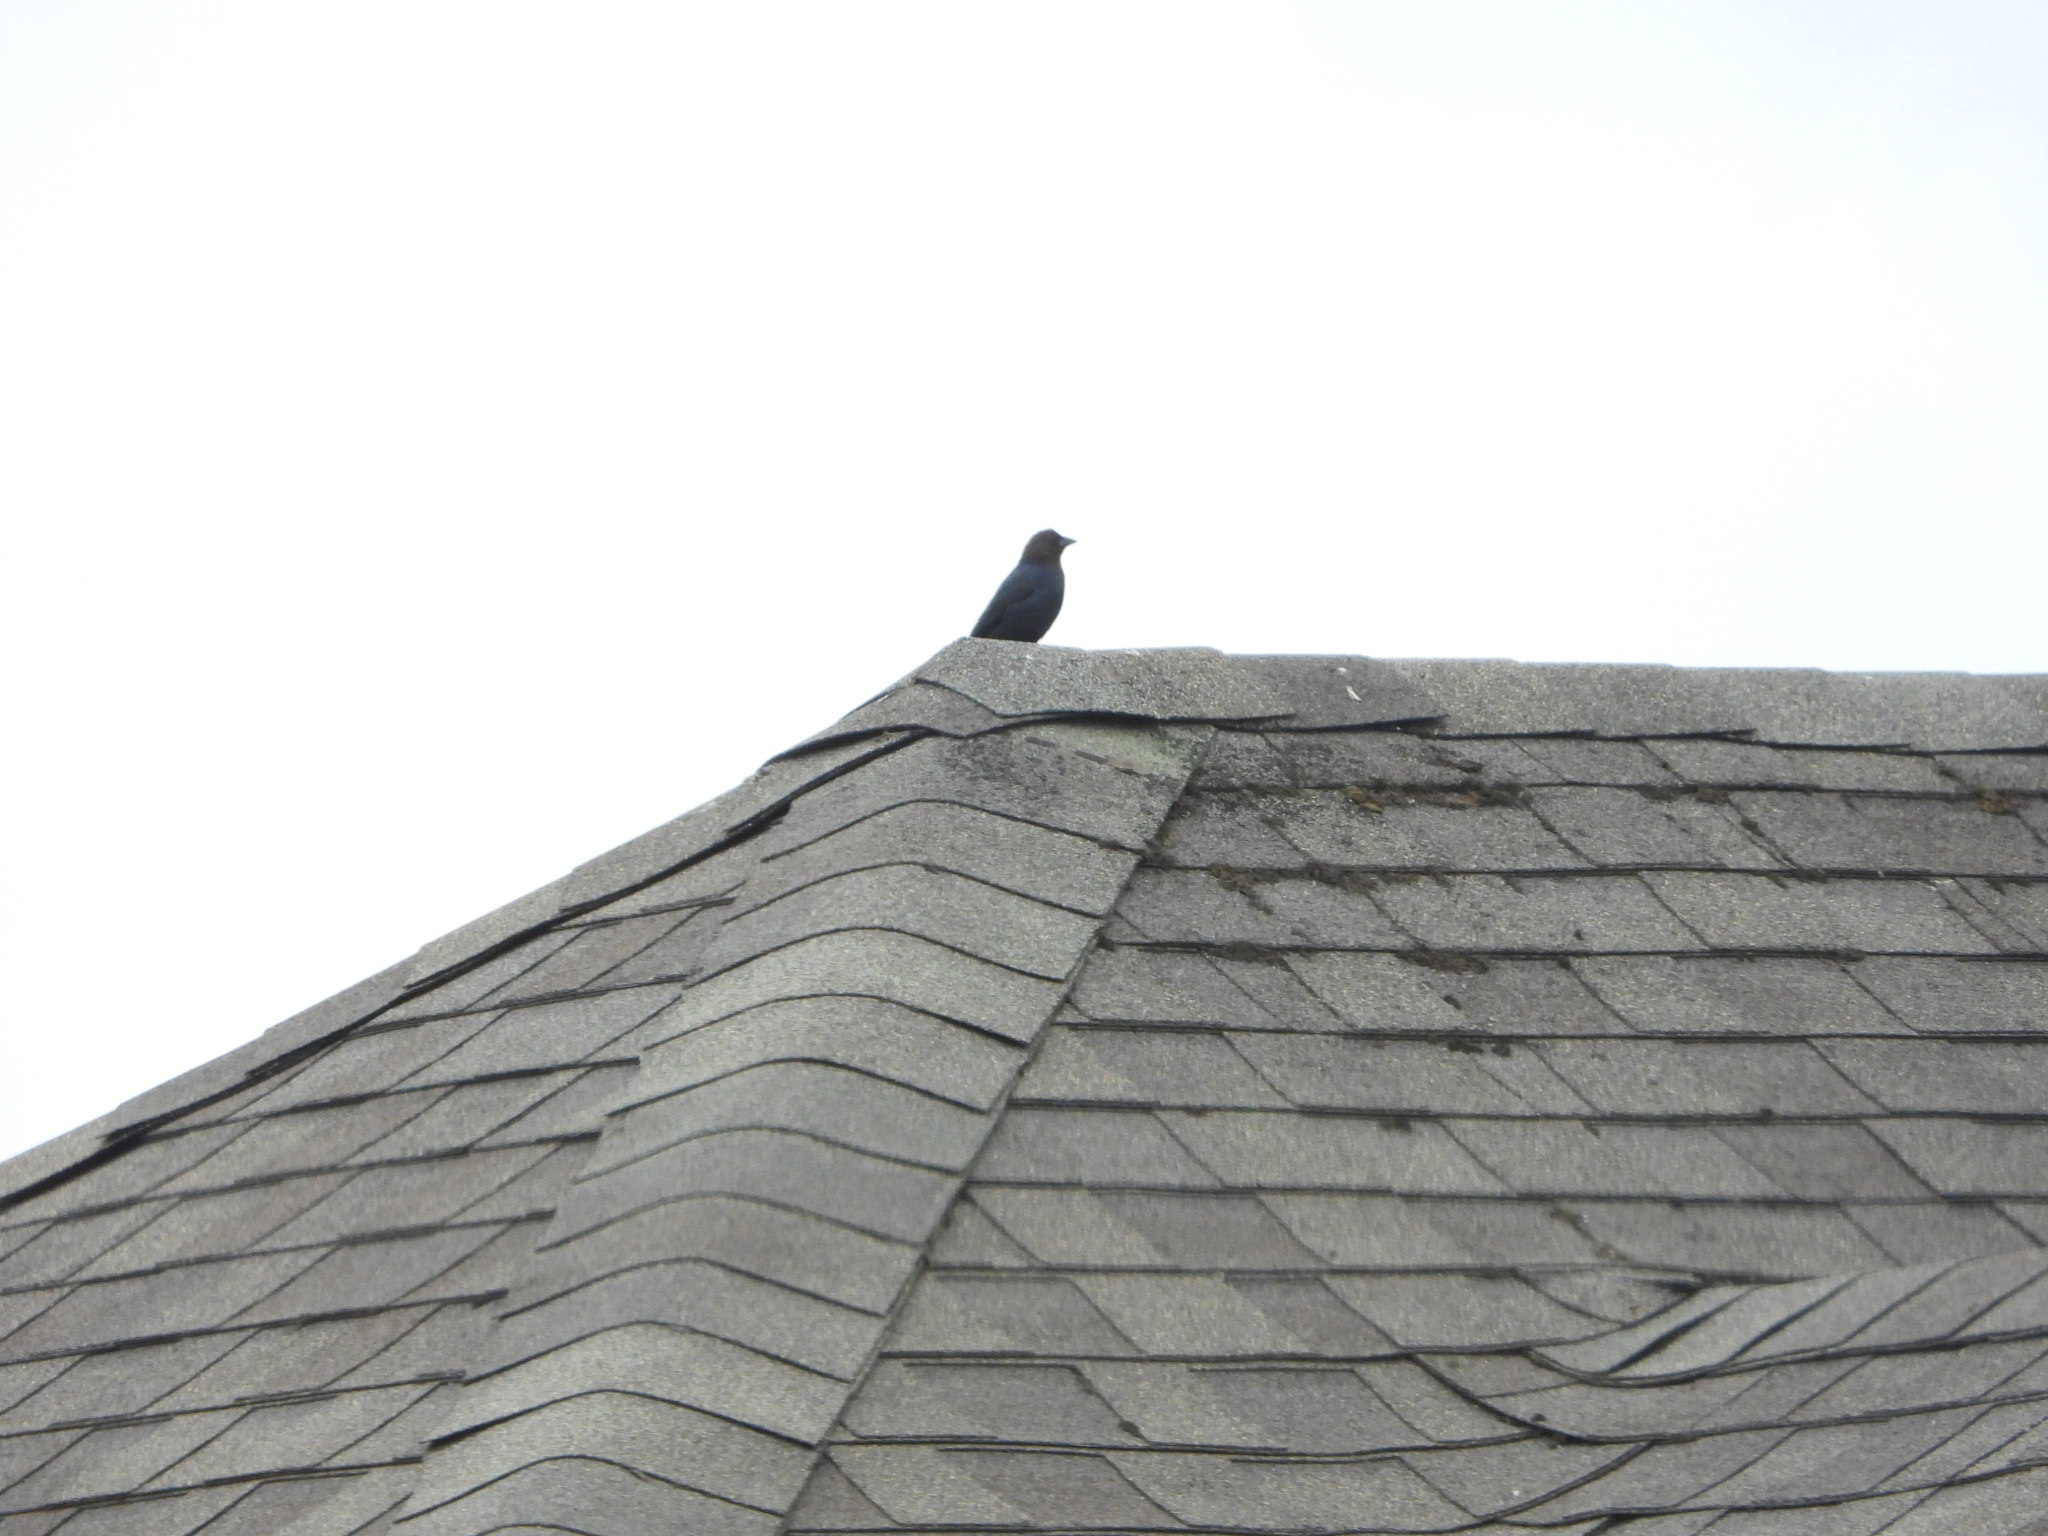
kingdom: Animalia
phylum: Chordata
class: Aves
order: Passeriformes
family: Icteridae
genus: Molothrus
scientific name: Molothrus ater
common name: Brown-headed cowbird
